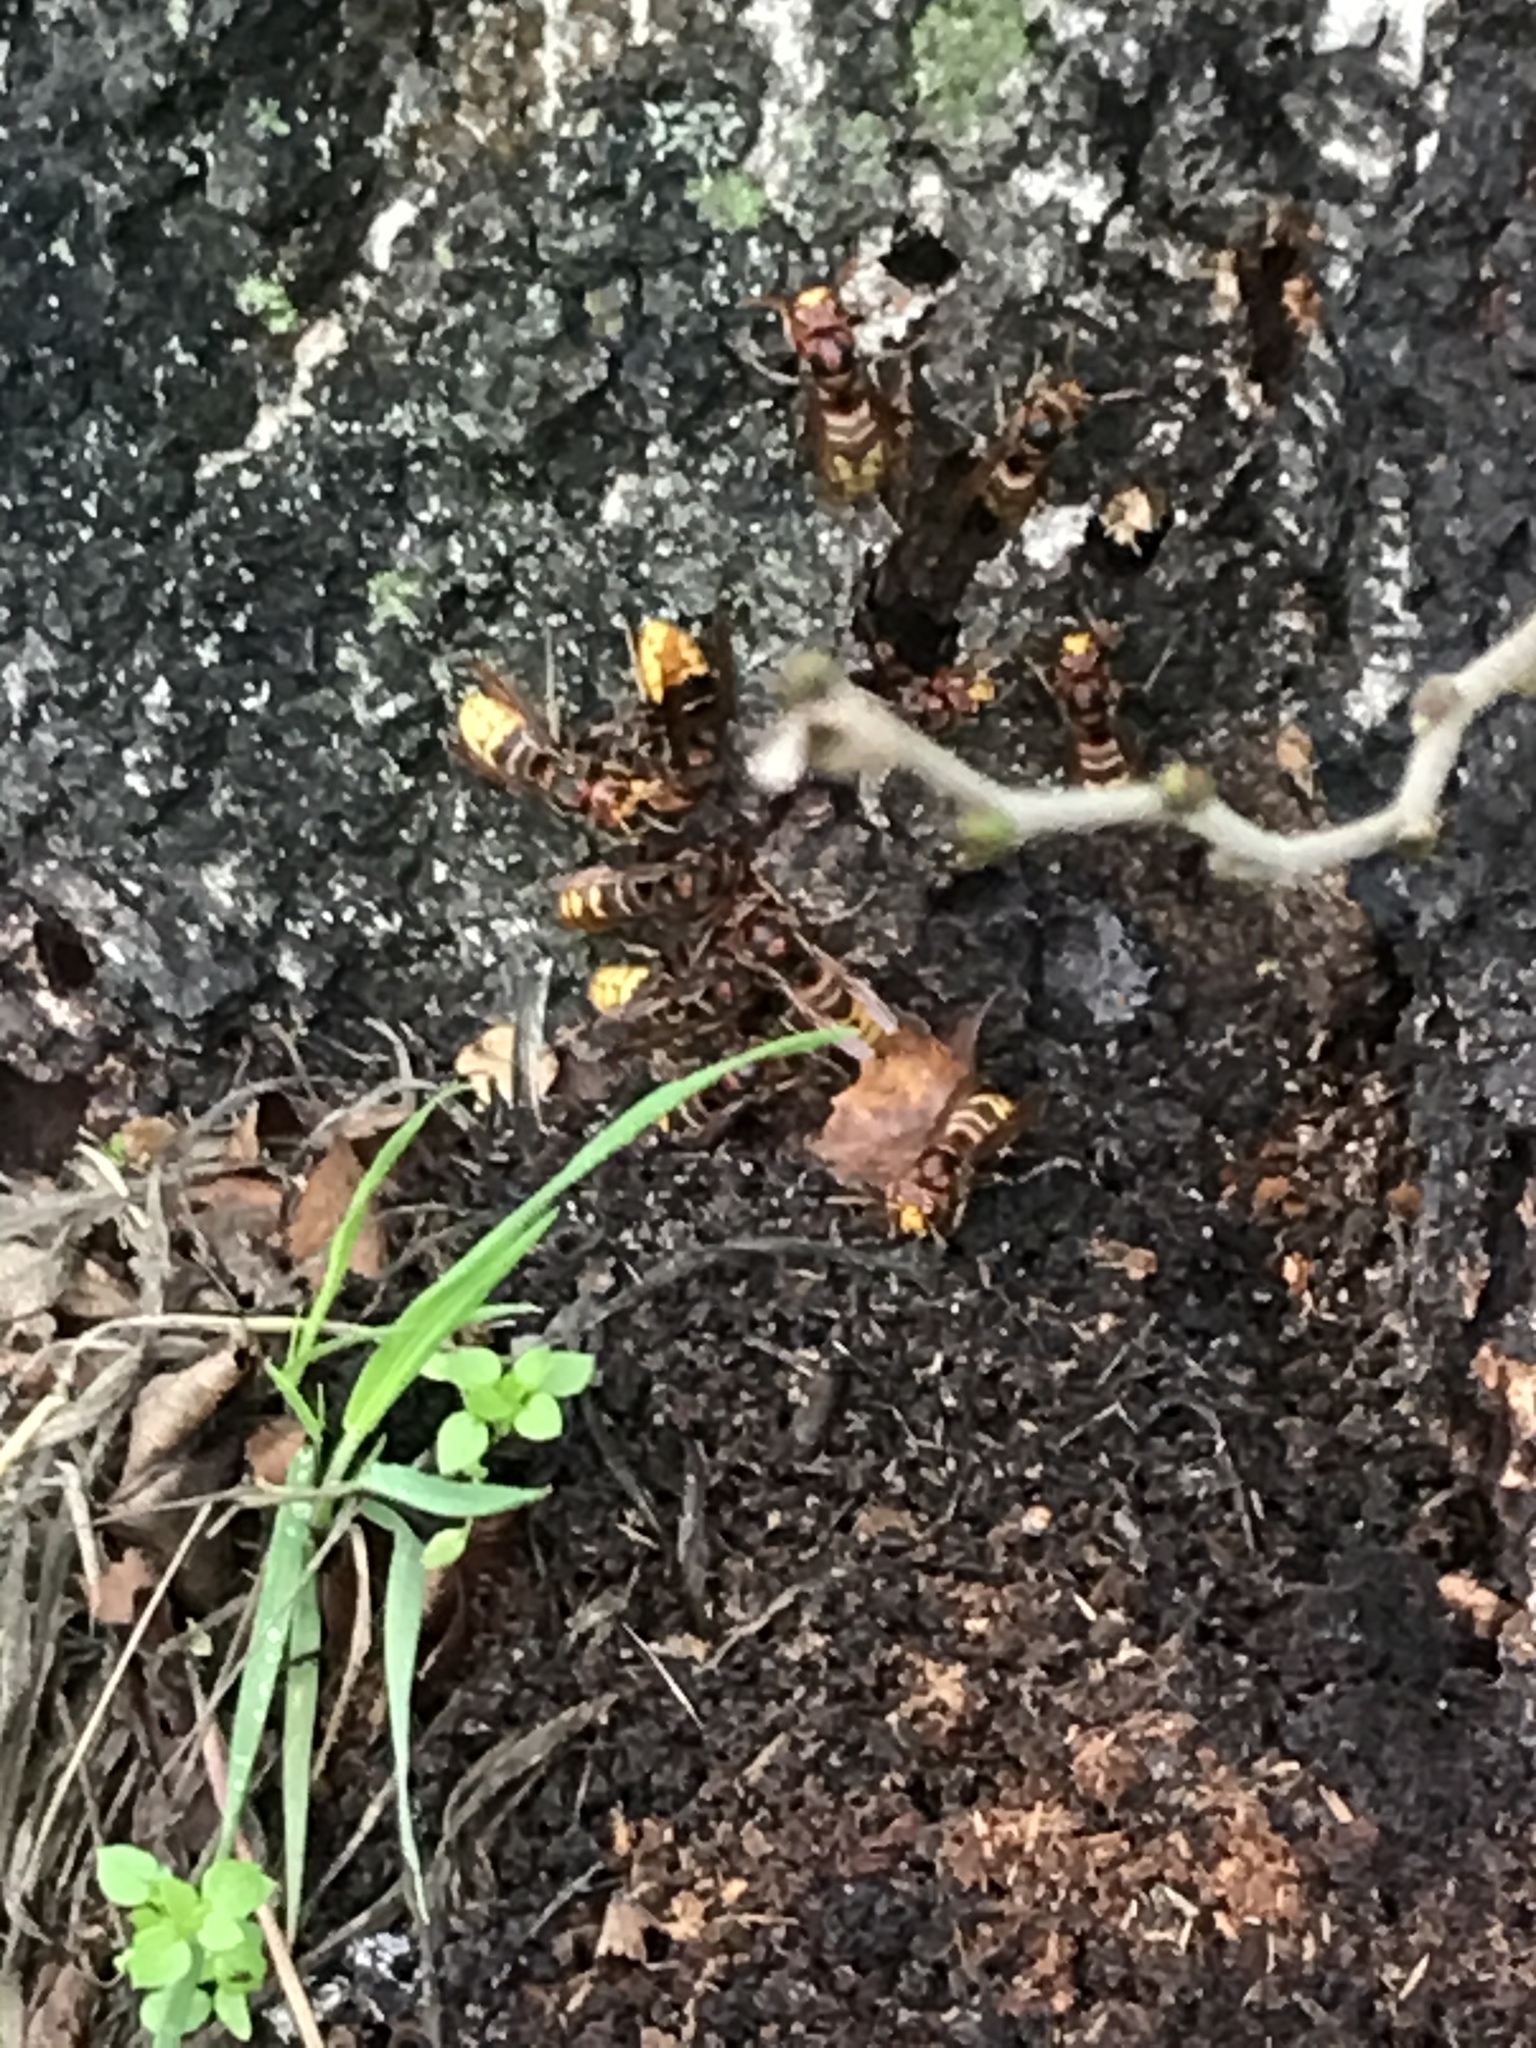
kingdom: Animalia
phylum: Arthropoda
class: Insecta
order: Hymenoptera
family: Vespidae
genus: Vespa
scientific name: Vespa crabro
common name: Hornet
